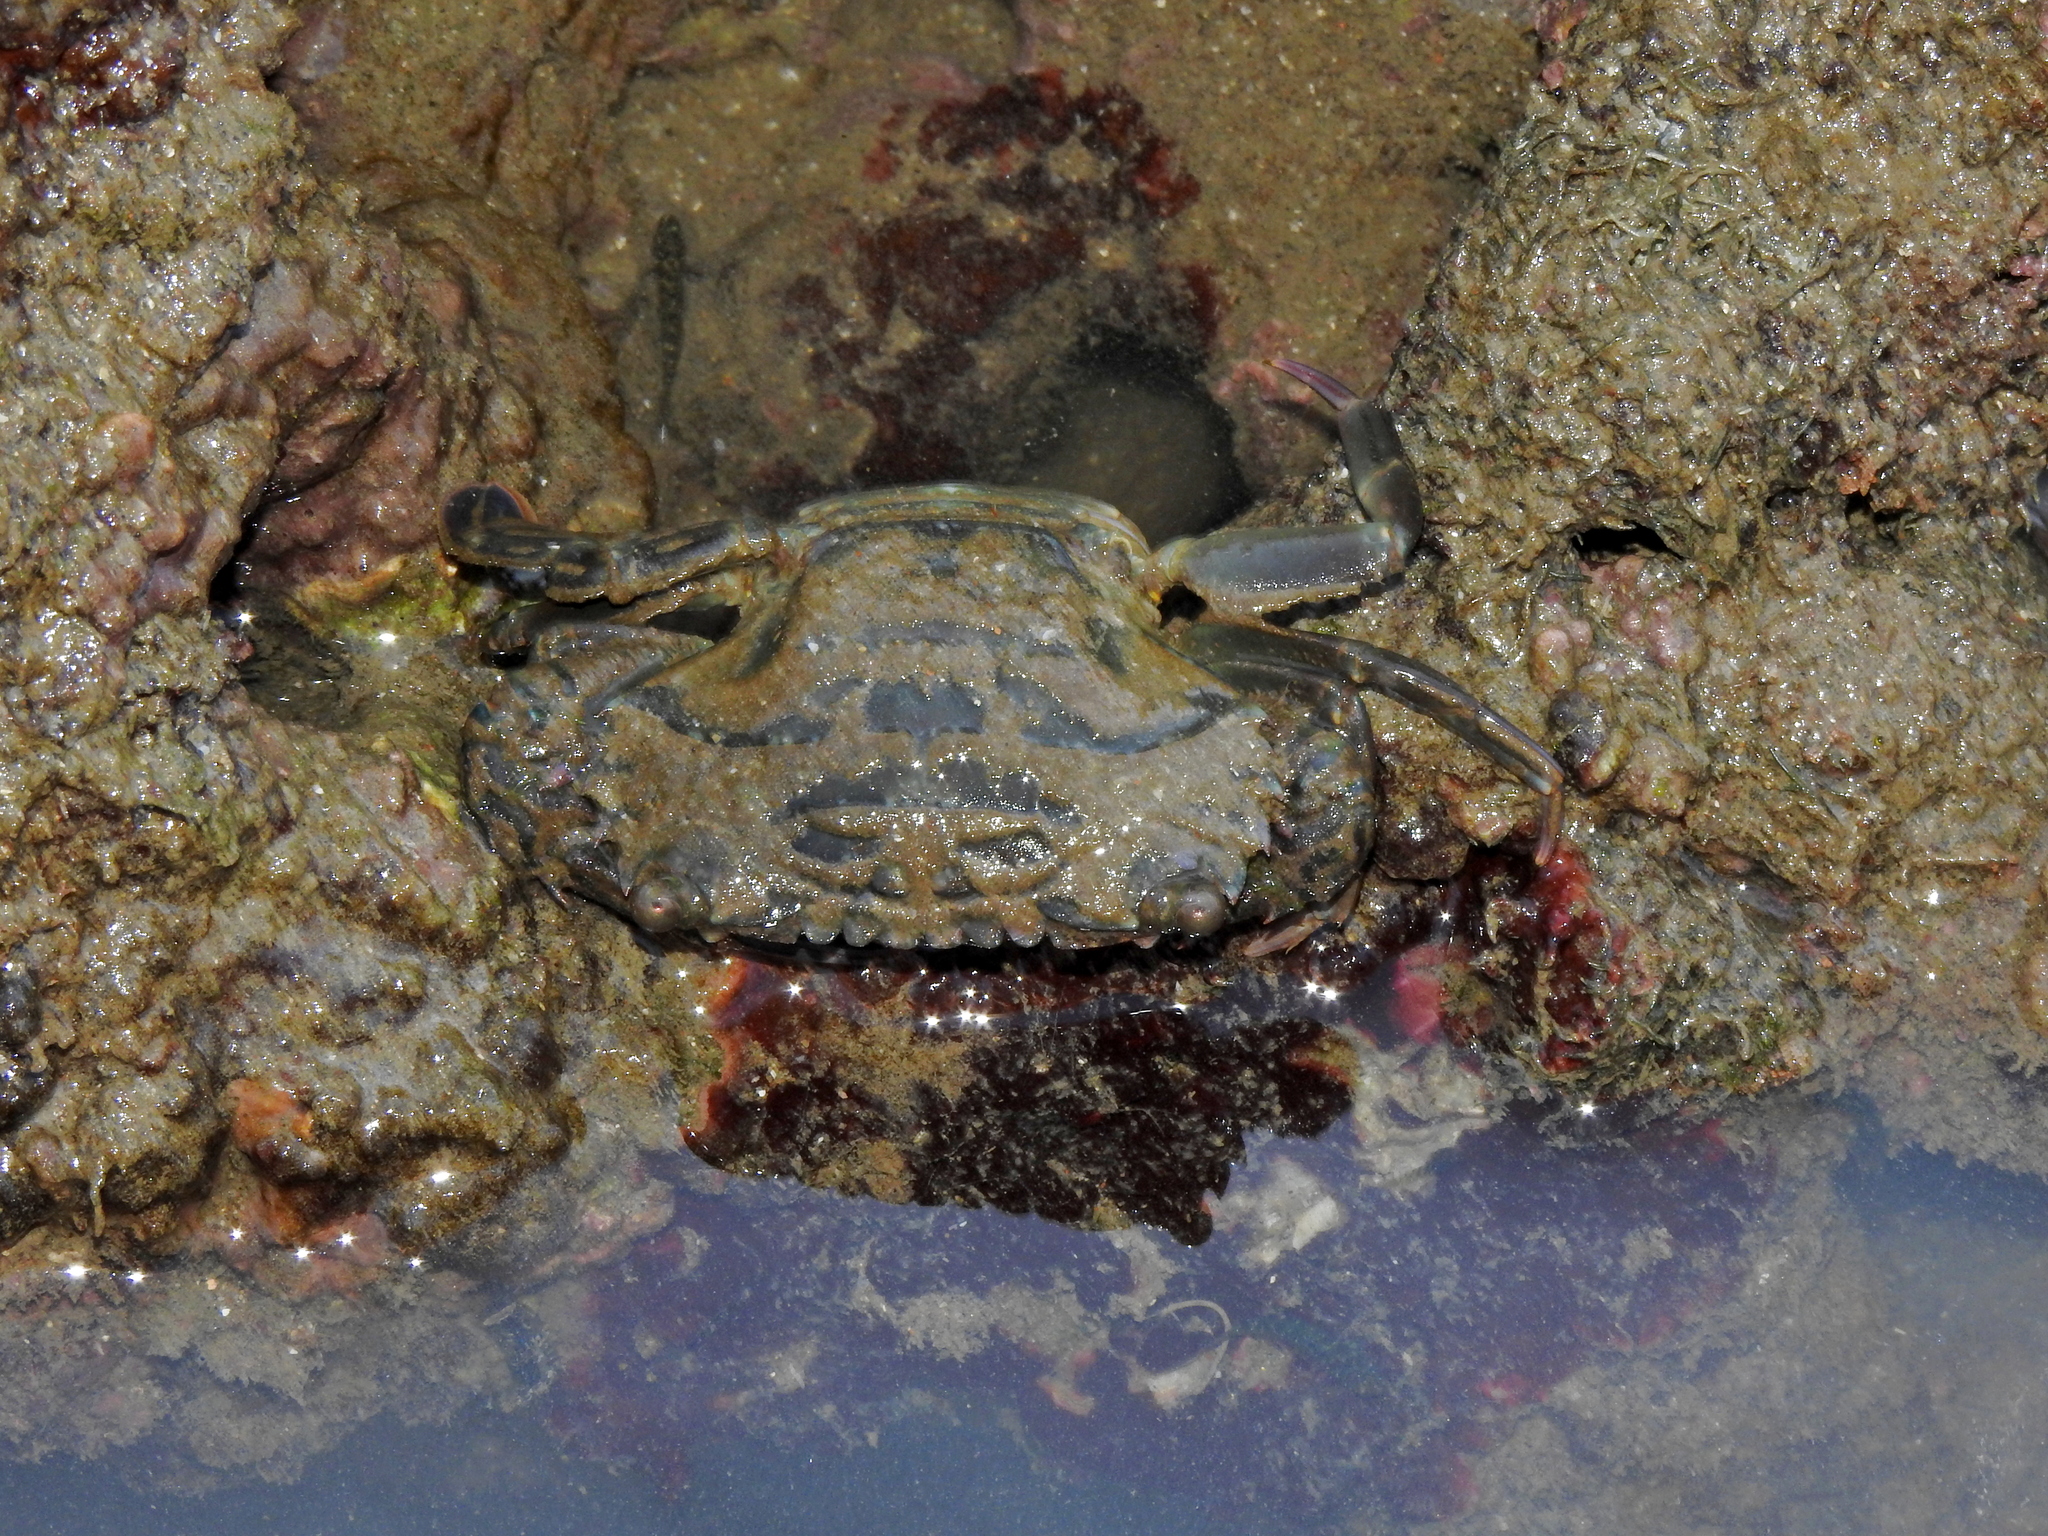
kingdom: Animalia
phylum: Arthropoda
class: Malacostraca
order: Decapoda
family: Portunidae
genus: Thalamita
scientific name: Thalamita danae
